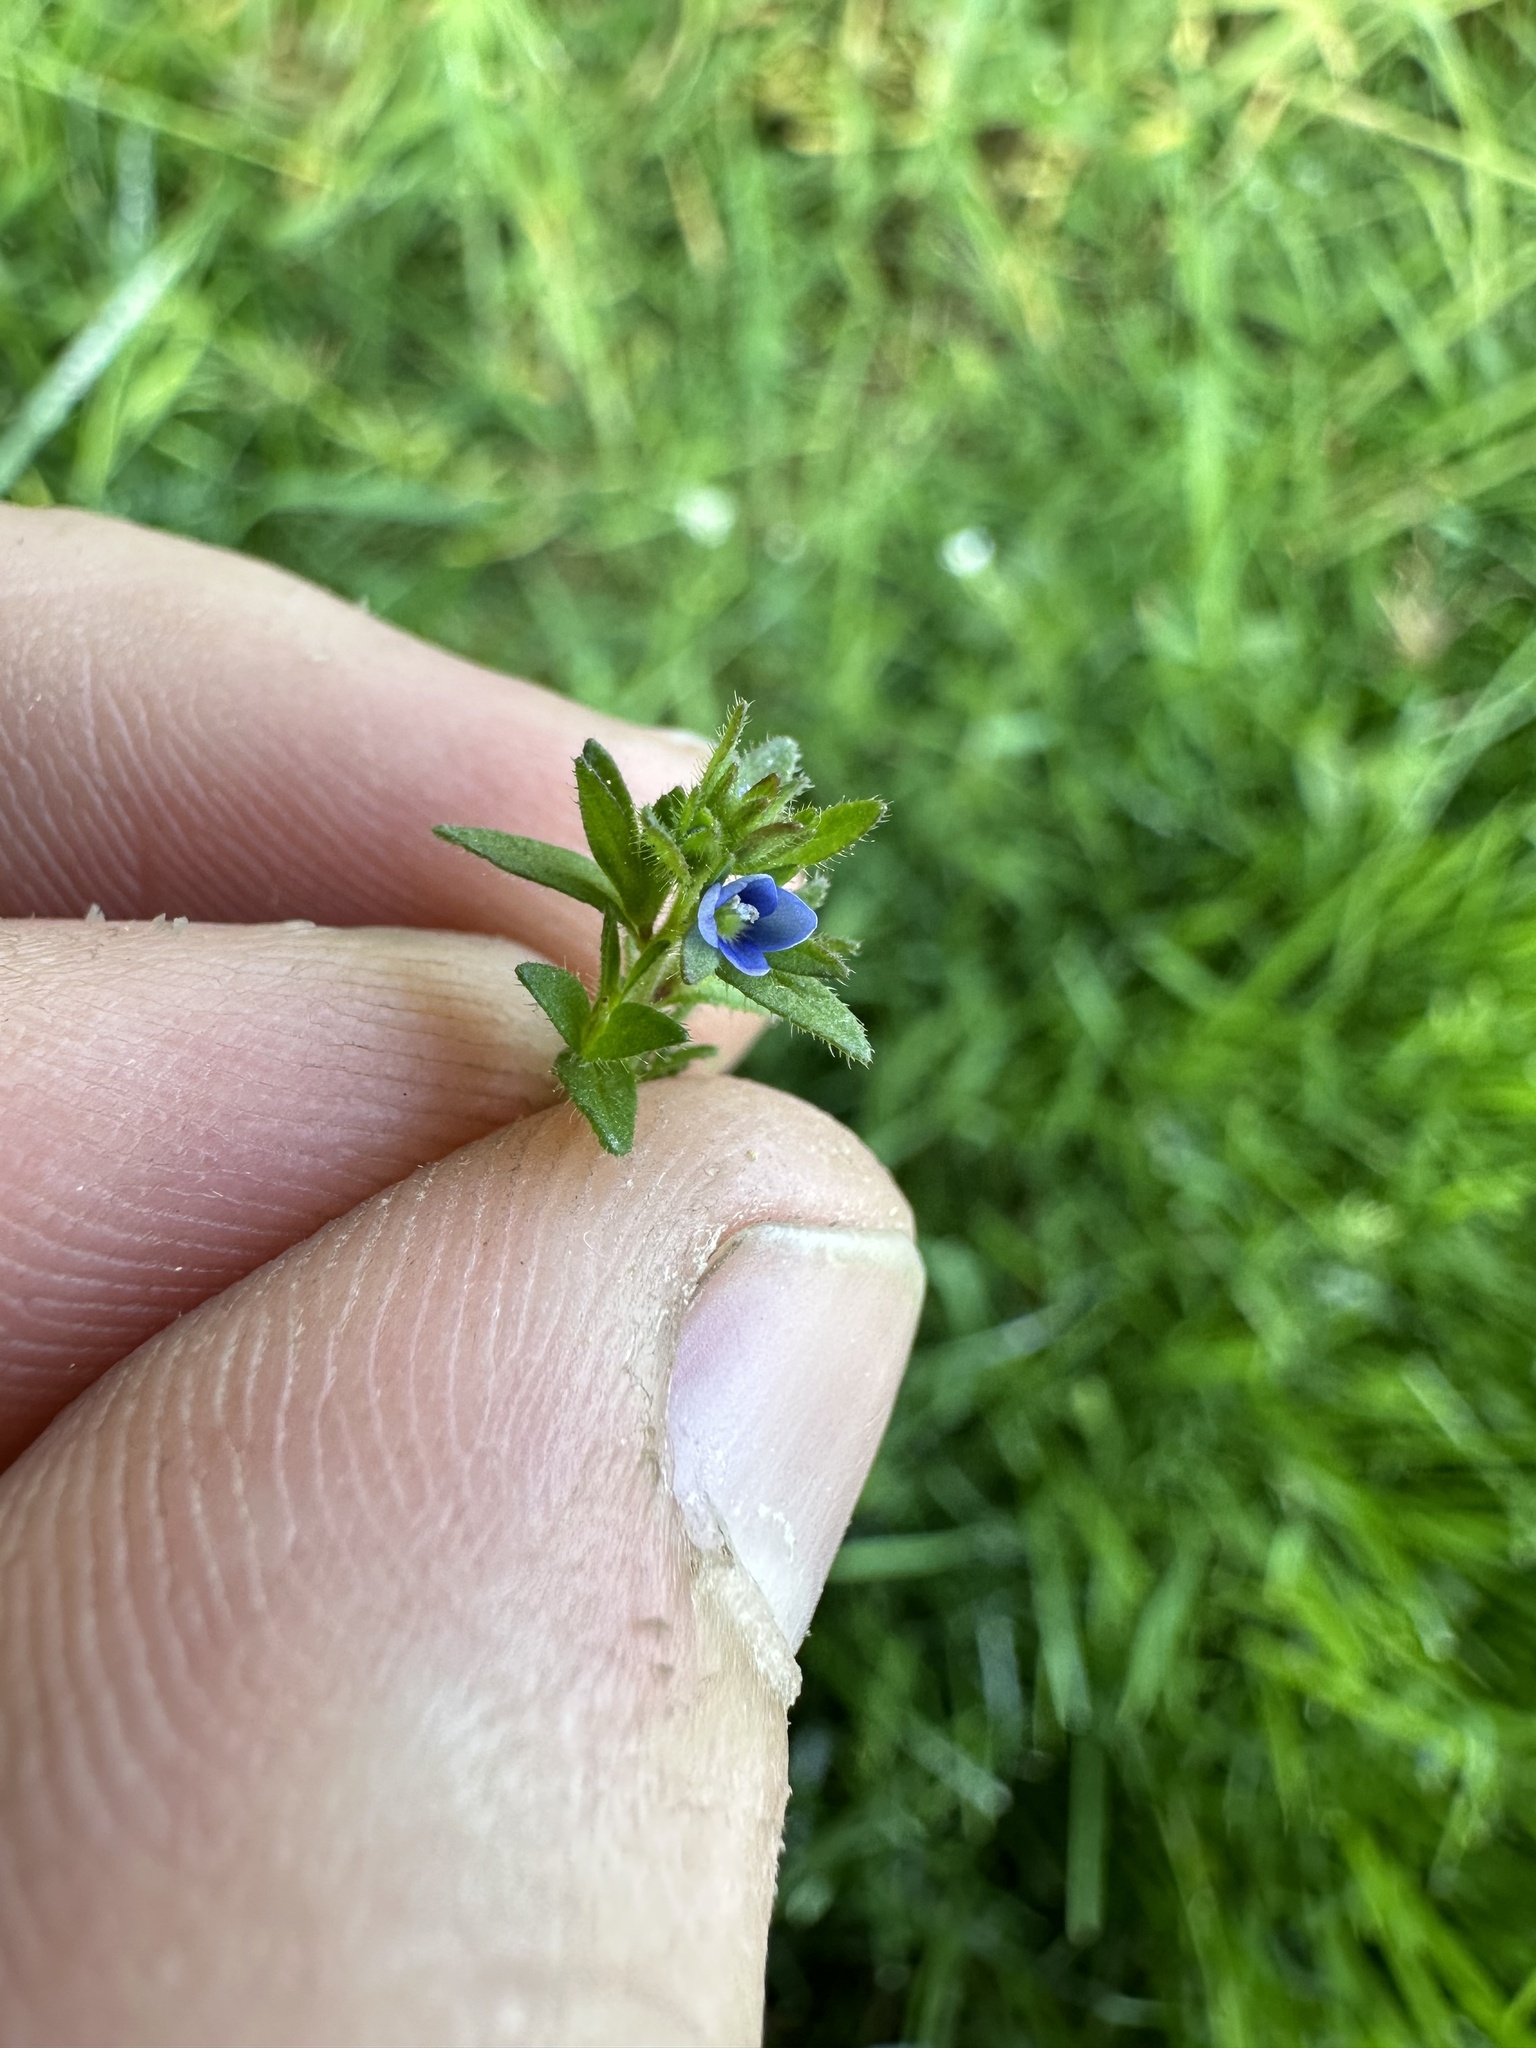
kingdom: Plantae
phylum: Tracheophyta
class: Magnoliopsida
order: Lamiales
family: Plantaginaceae
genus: Veronica
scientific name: Veronica arvensis
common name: Corn speedwell
